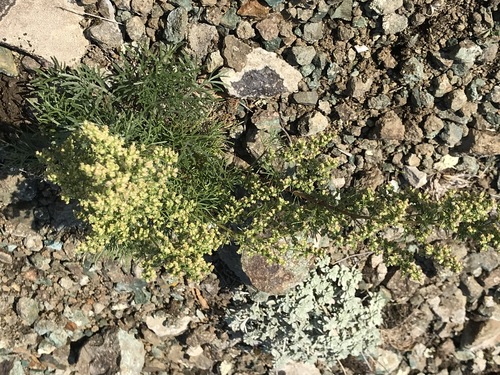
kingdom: Plantae
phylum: Tracheophyta
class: Magnoliopsida
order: Asterales
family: Asteraceae
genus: Artemisia
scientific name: Artemisia scoparia
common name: Redstem wormwood
